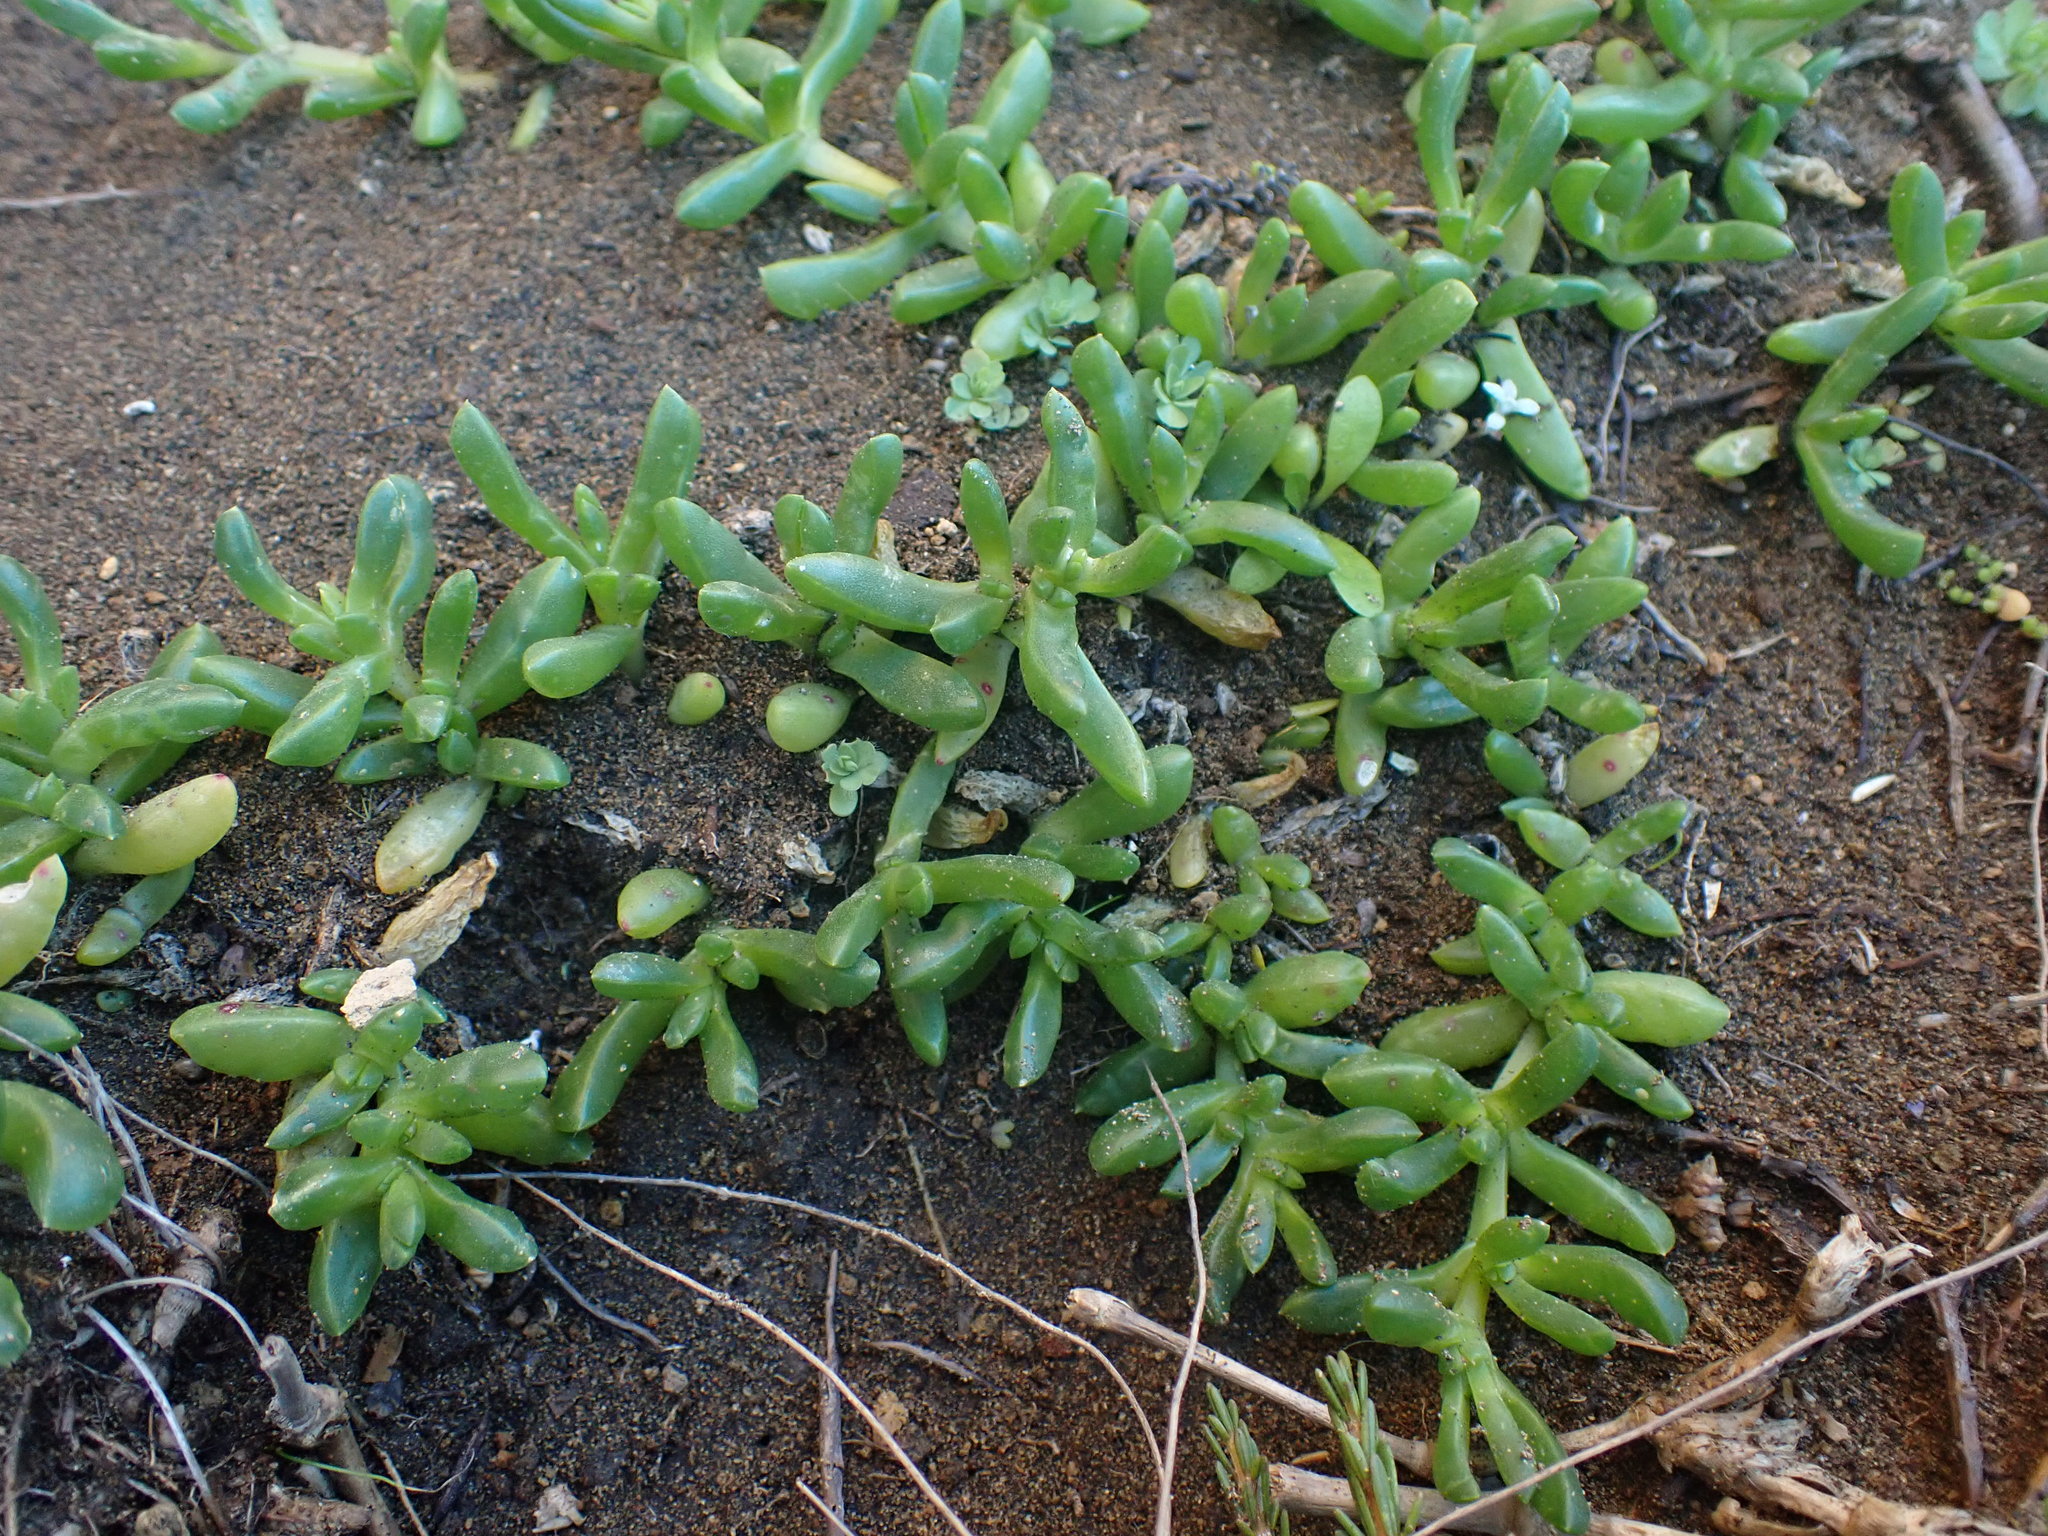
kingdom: Plantae
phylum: Tracheophyta
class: Magnoliopsida
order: Caryophyllales
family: Aizoaceae
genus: Disphyma
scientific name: Disphyma australe
